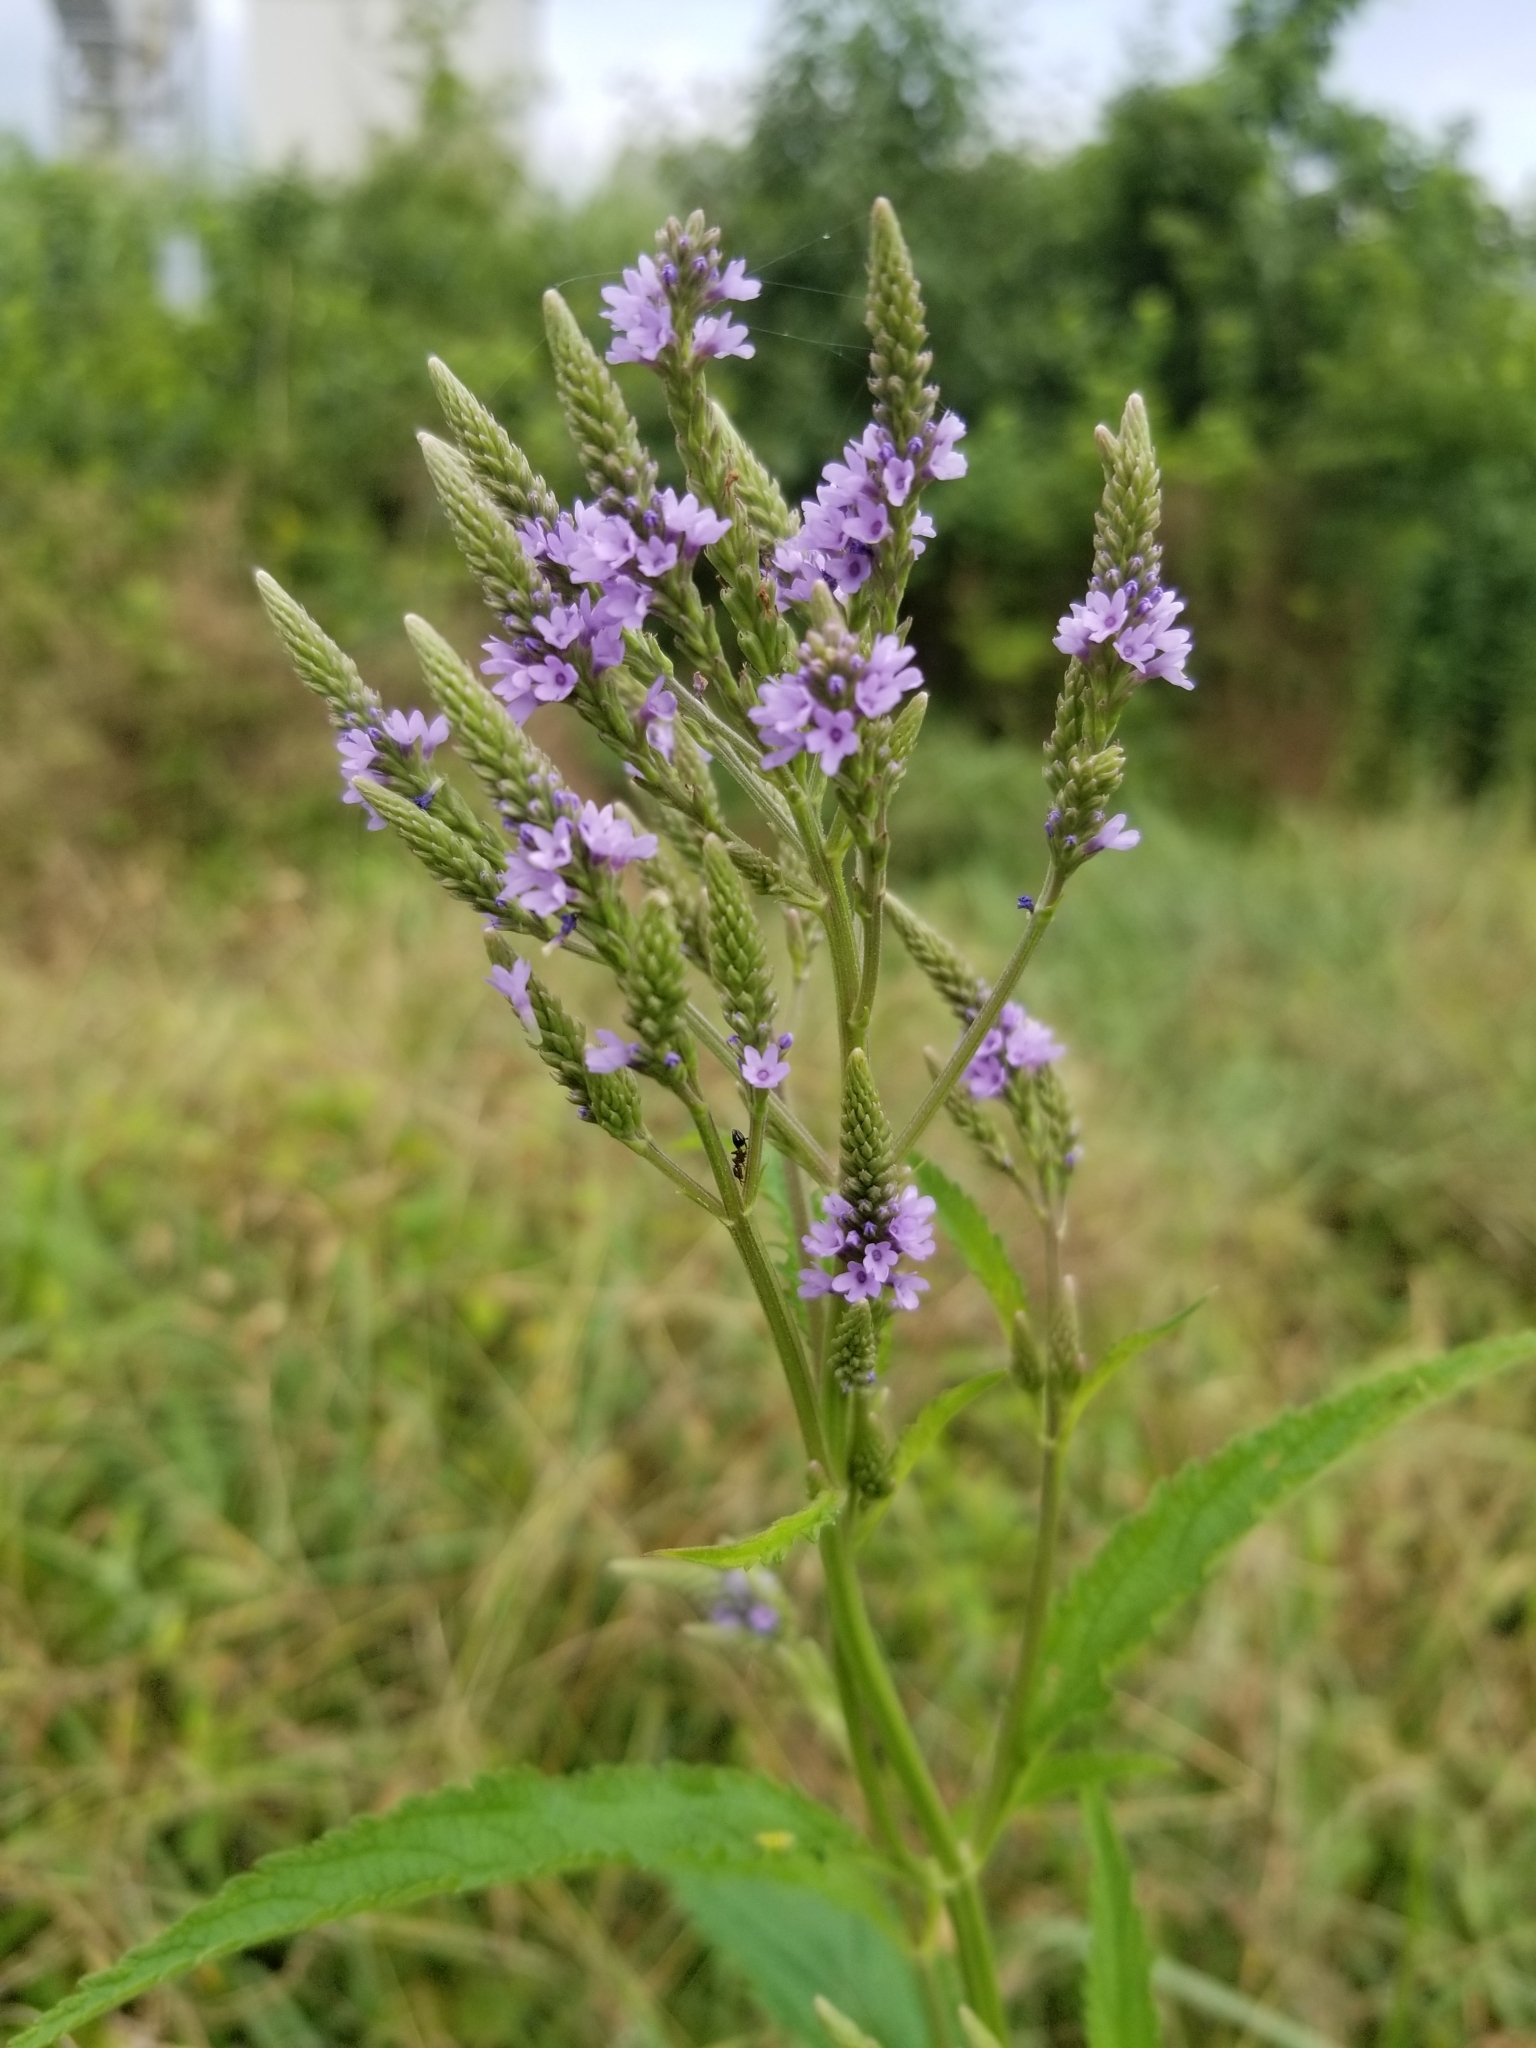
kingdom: Plantae
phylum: Tracheophyta
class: Magnoliopsida
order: Lamiales
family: Verbenaceae
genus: Verbena
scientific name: Verbena hastata
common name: American blue vervain
